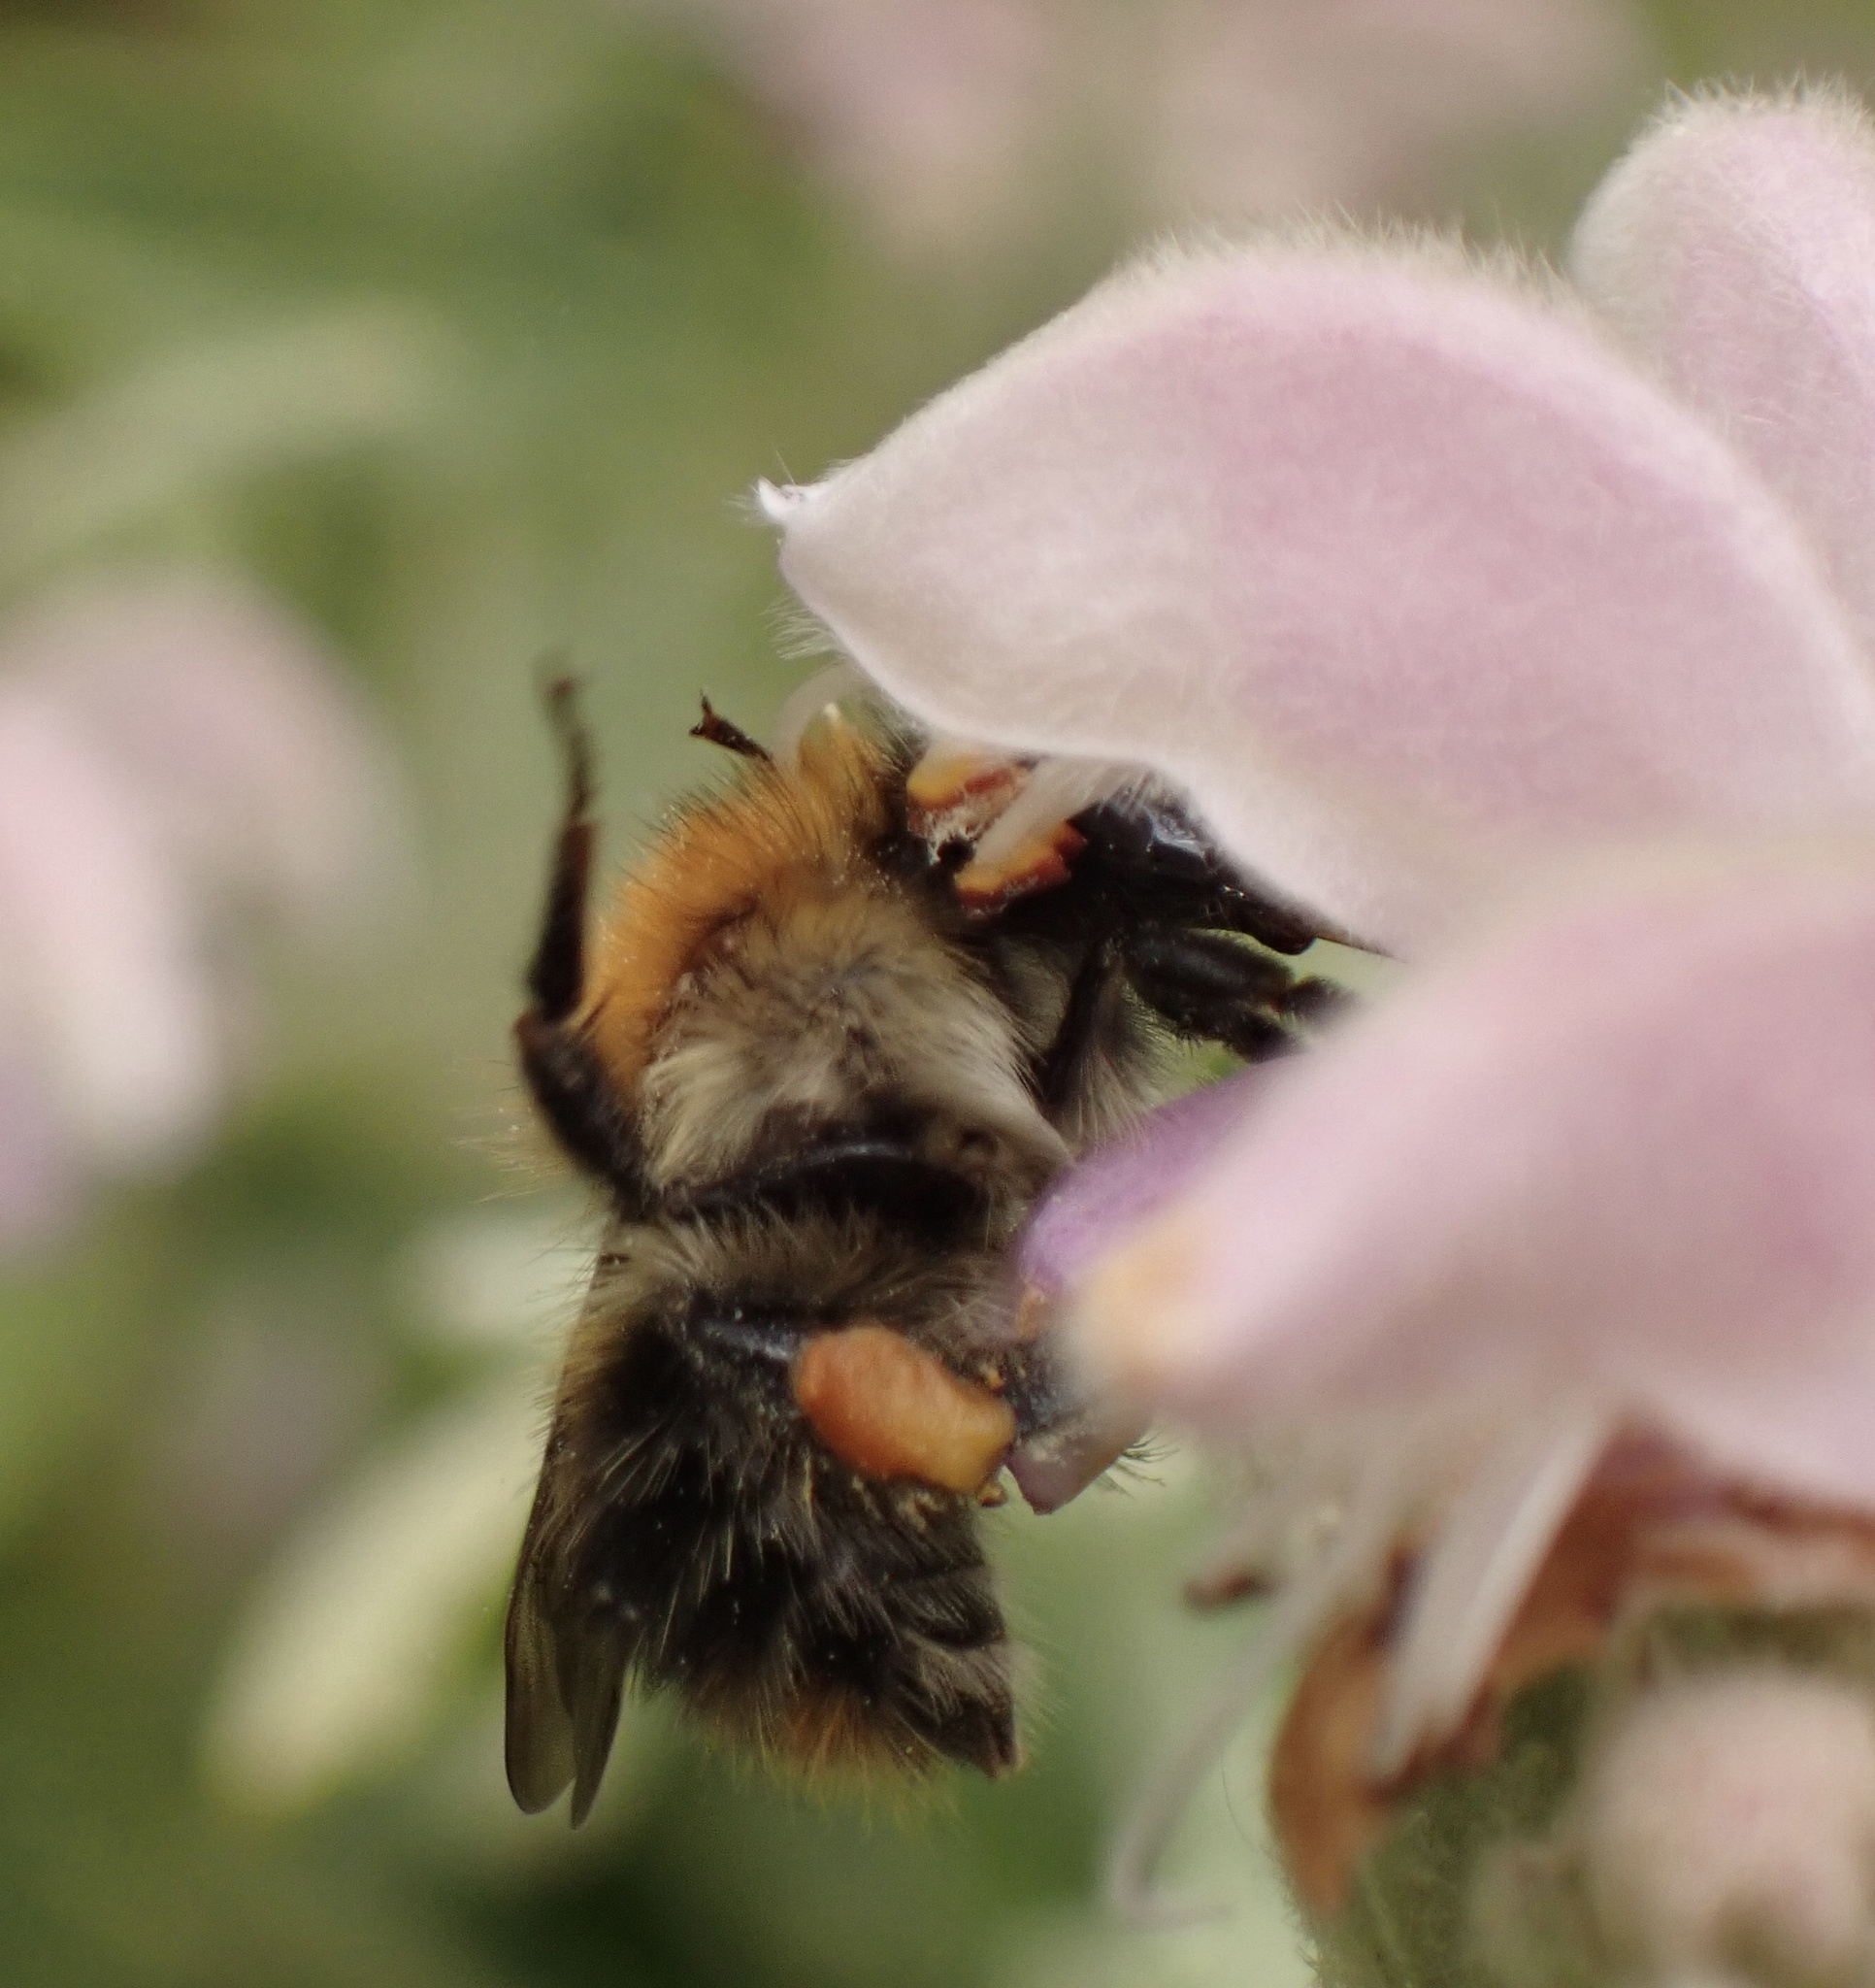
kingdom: Animalia
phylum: Arthropoda
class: Insecta
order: Hymenoptera
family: Apidae
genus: Bombus
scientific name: Bombus pascuorum
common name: Common carder bee
